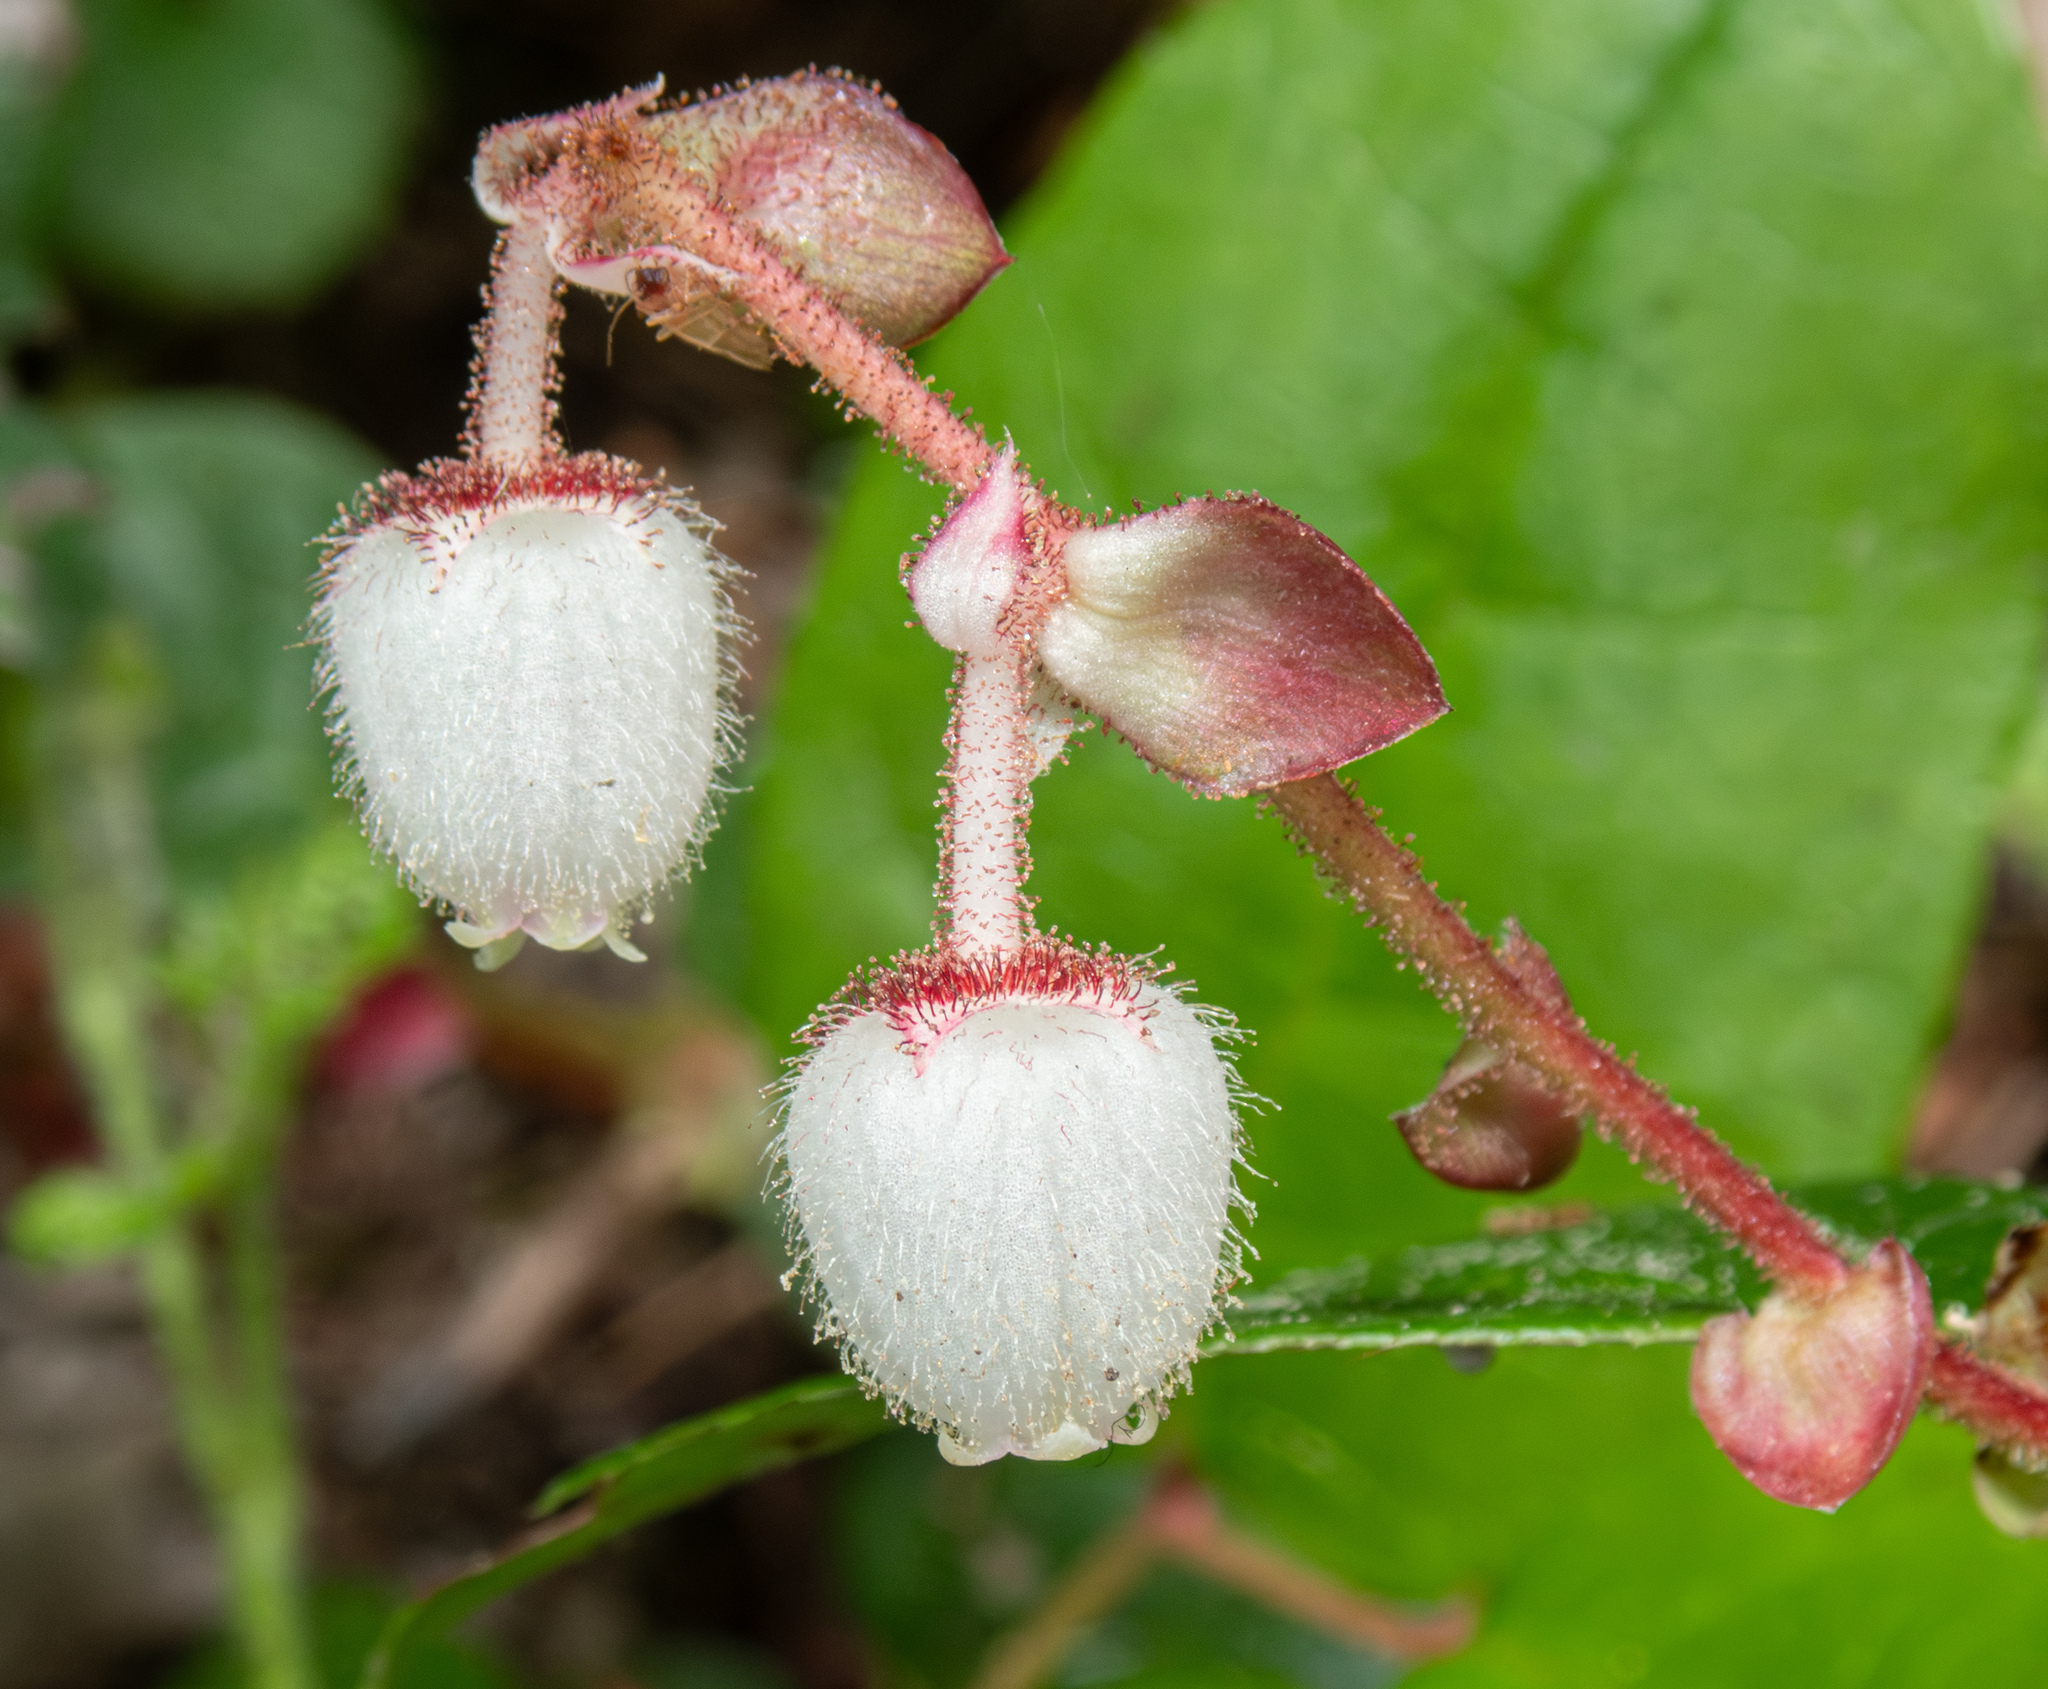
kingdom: Plantae
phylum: Tracheophyta
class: Magnoliopsida
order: Ericales
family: Ericaceae
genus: Gaultheria
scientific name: Gaultheria shallon
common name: Shallon
